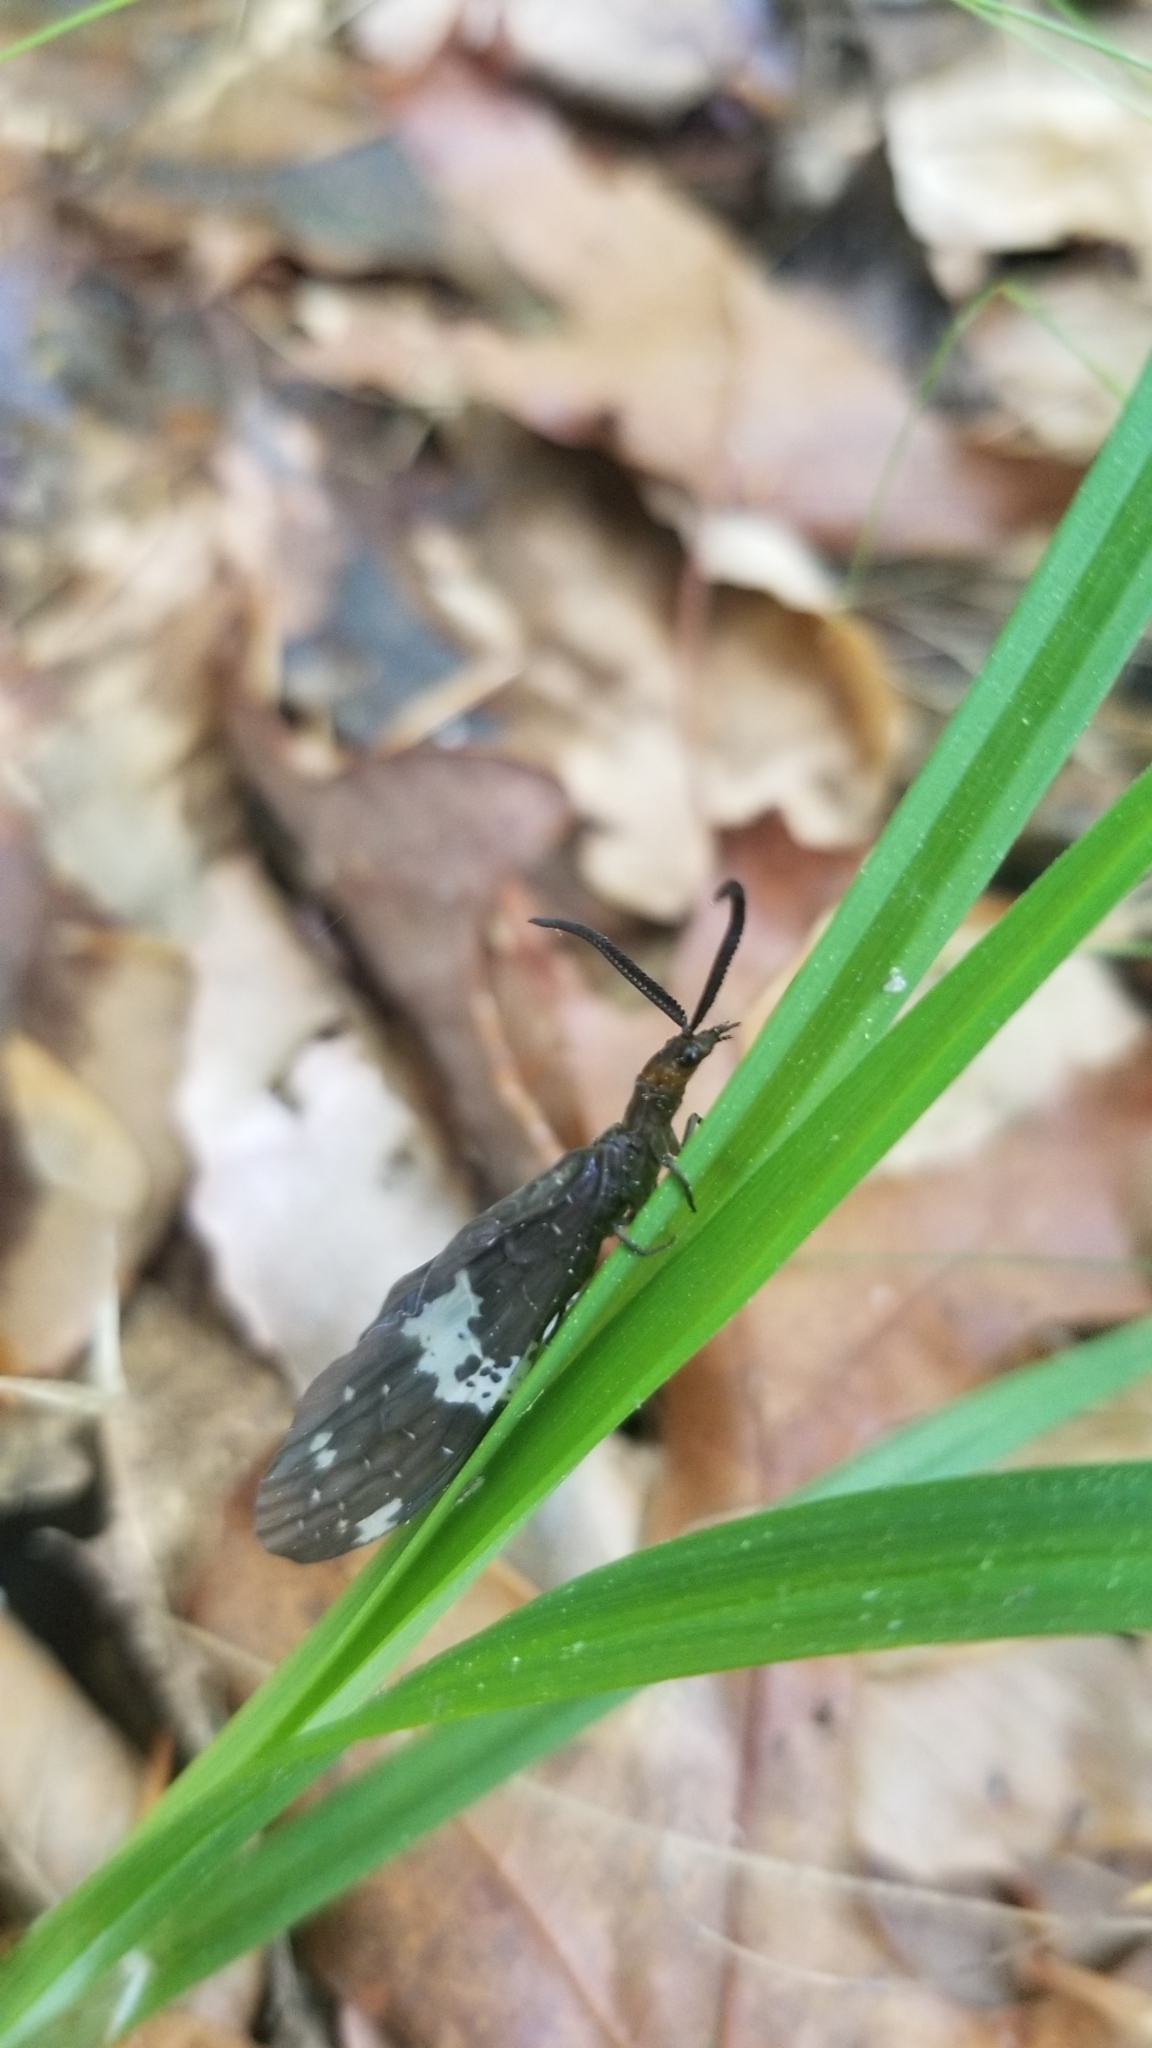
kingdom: Animalia
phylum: Arthropoda
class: Insecta
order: Megaloptera
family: Corydalidae
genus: Nigronia
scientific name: Nigronia fasciata
